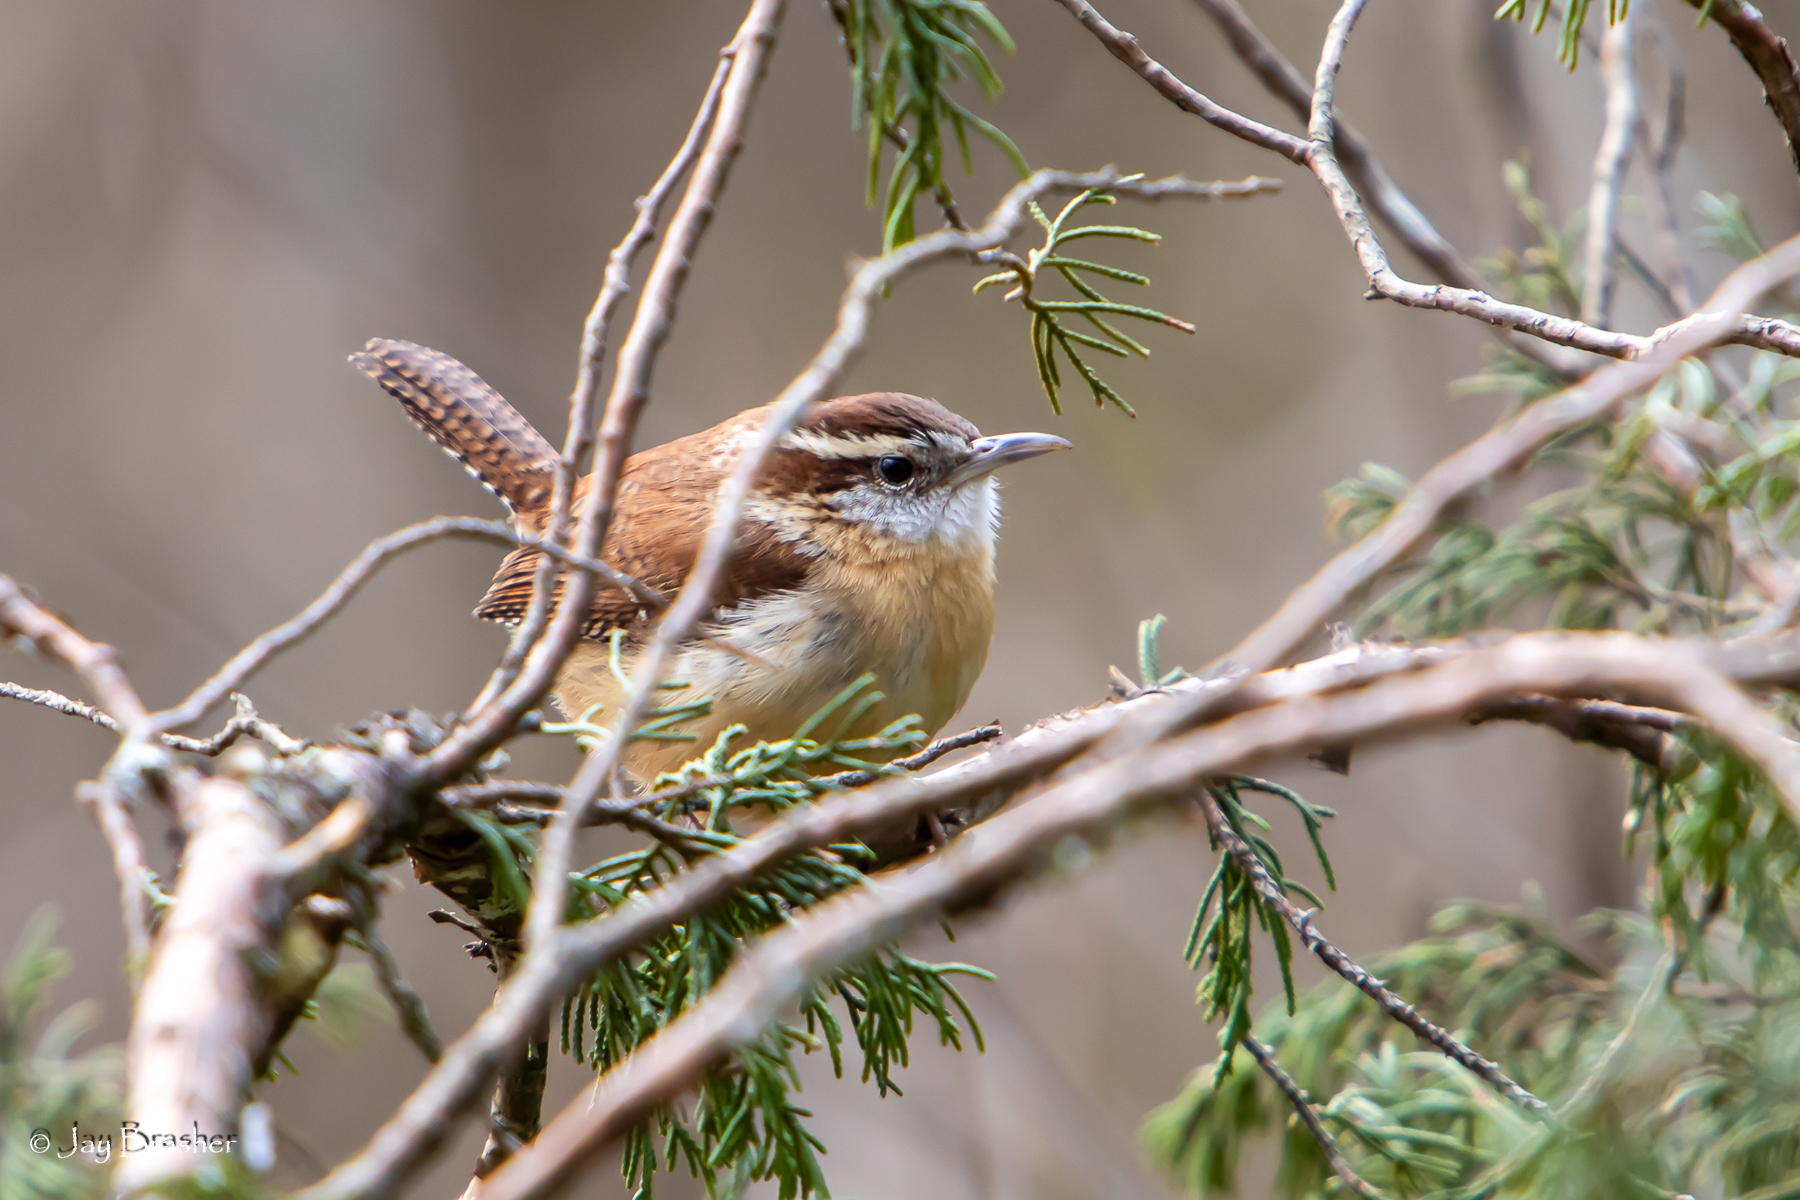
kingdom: Animalia
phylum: Chordata
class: Aves
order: Passeriformes
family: Troglodytidae
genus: Thryothorus
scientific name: Thryothorus ludovicianus
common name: Carolina wren
